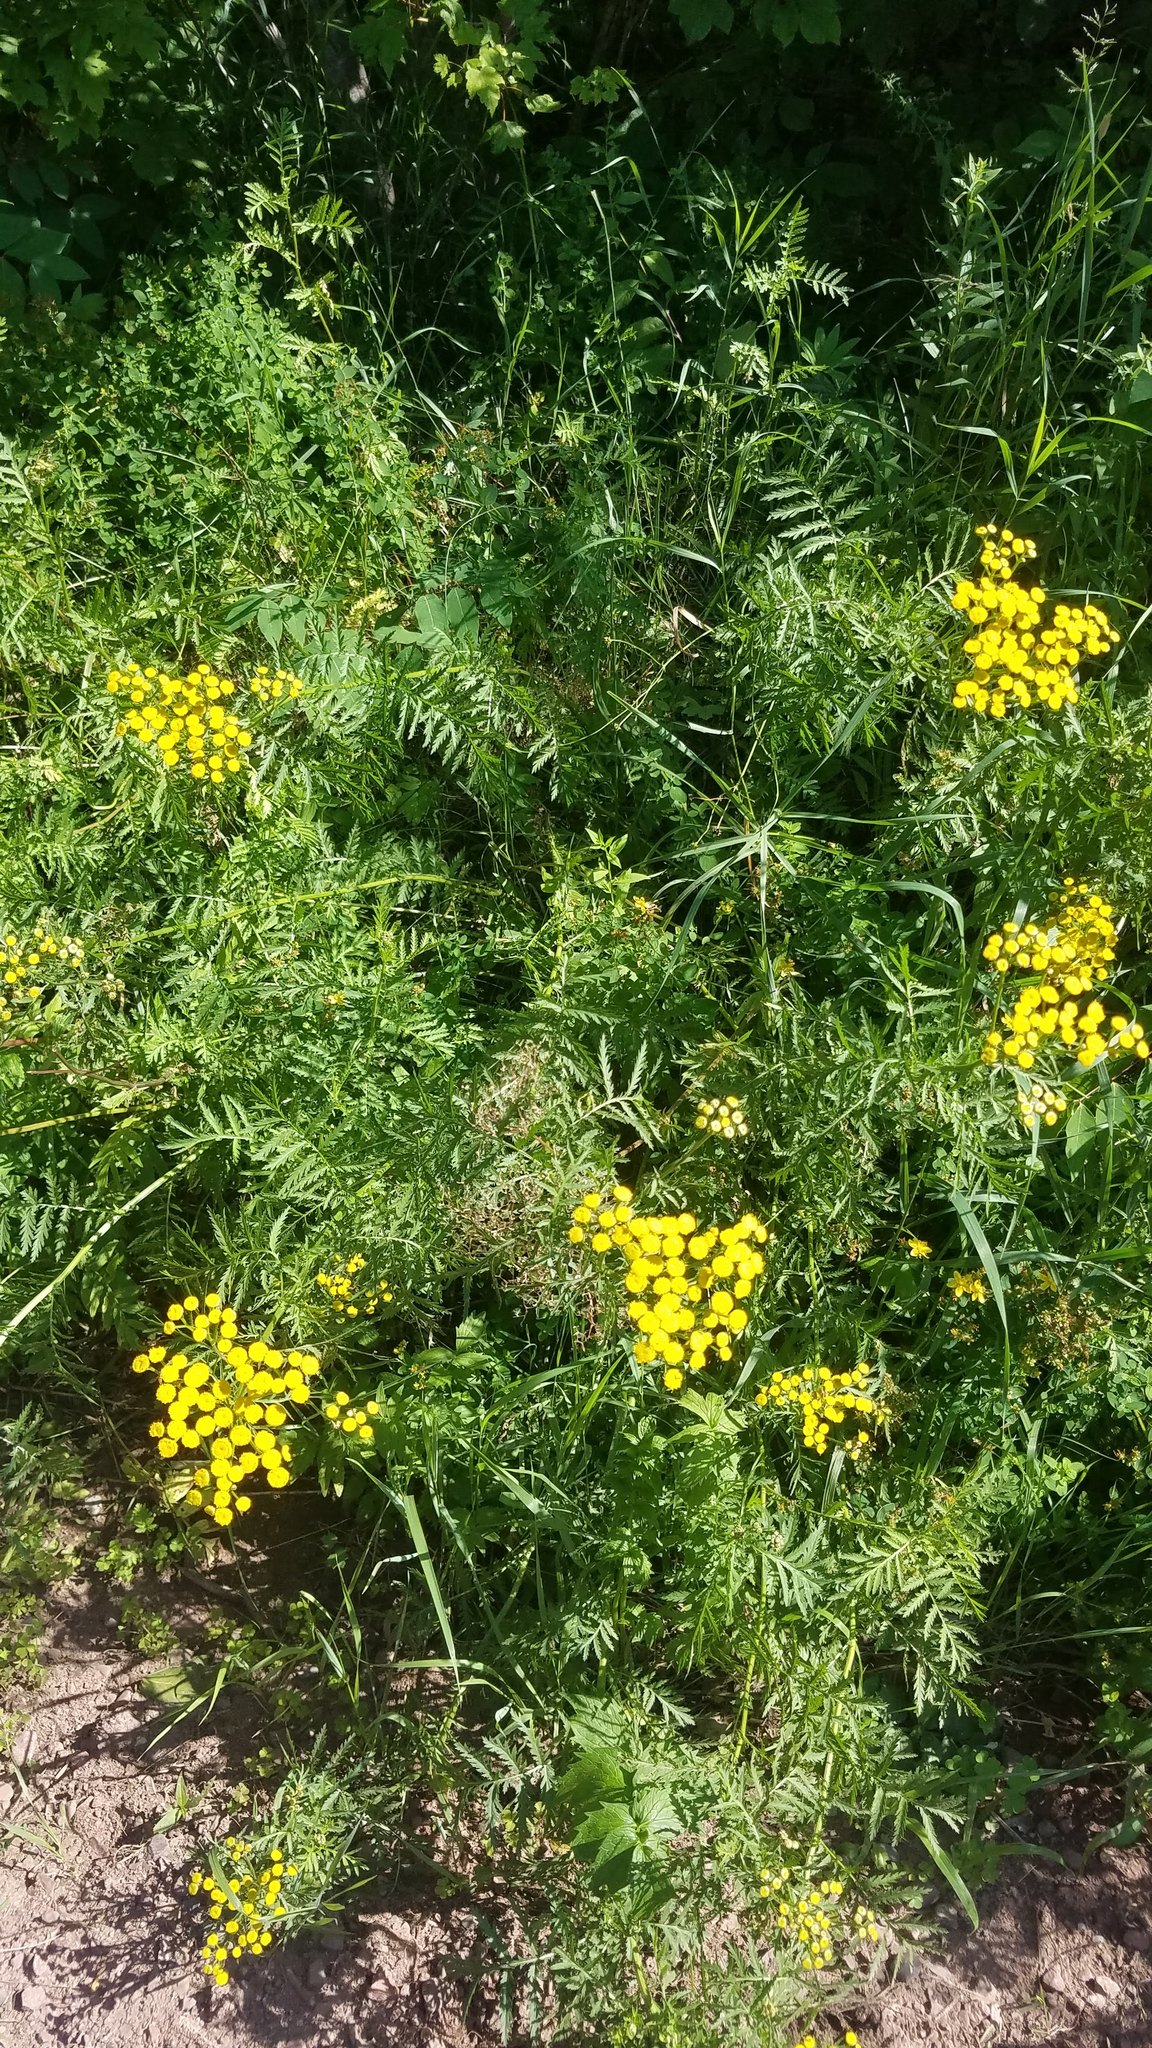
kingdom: Plantae
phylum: Tracheophyta
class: Magnoliopsida
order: Asterales
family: Asteraceae
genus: Tanacetum
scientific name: Tanacetum vulgare
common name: Common tansy
